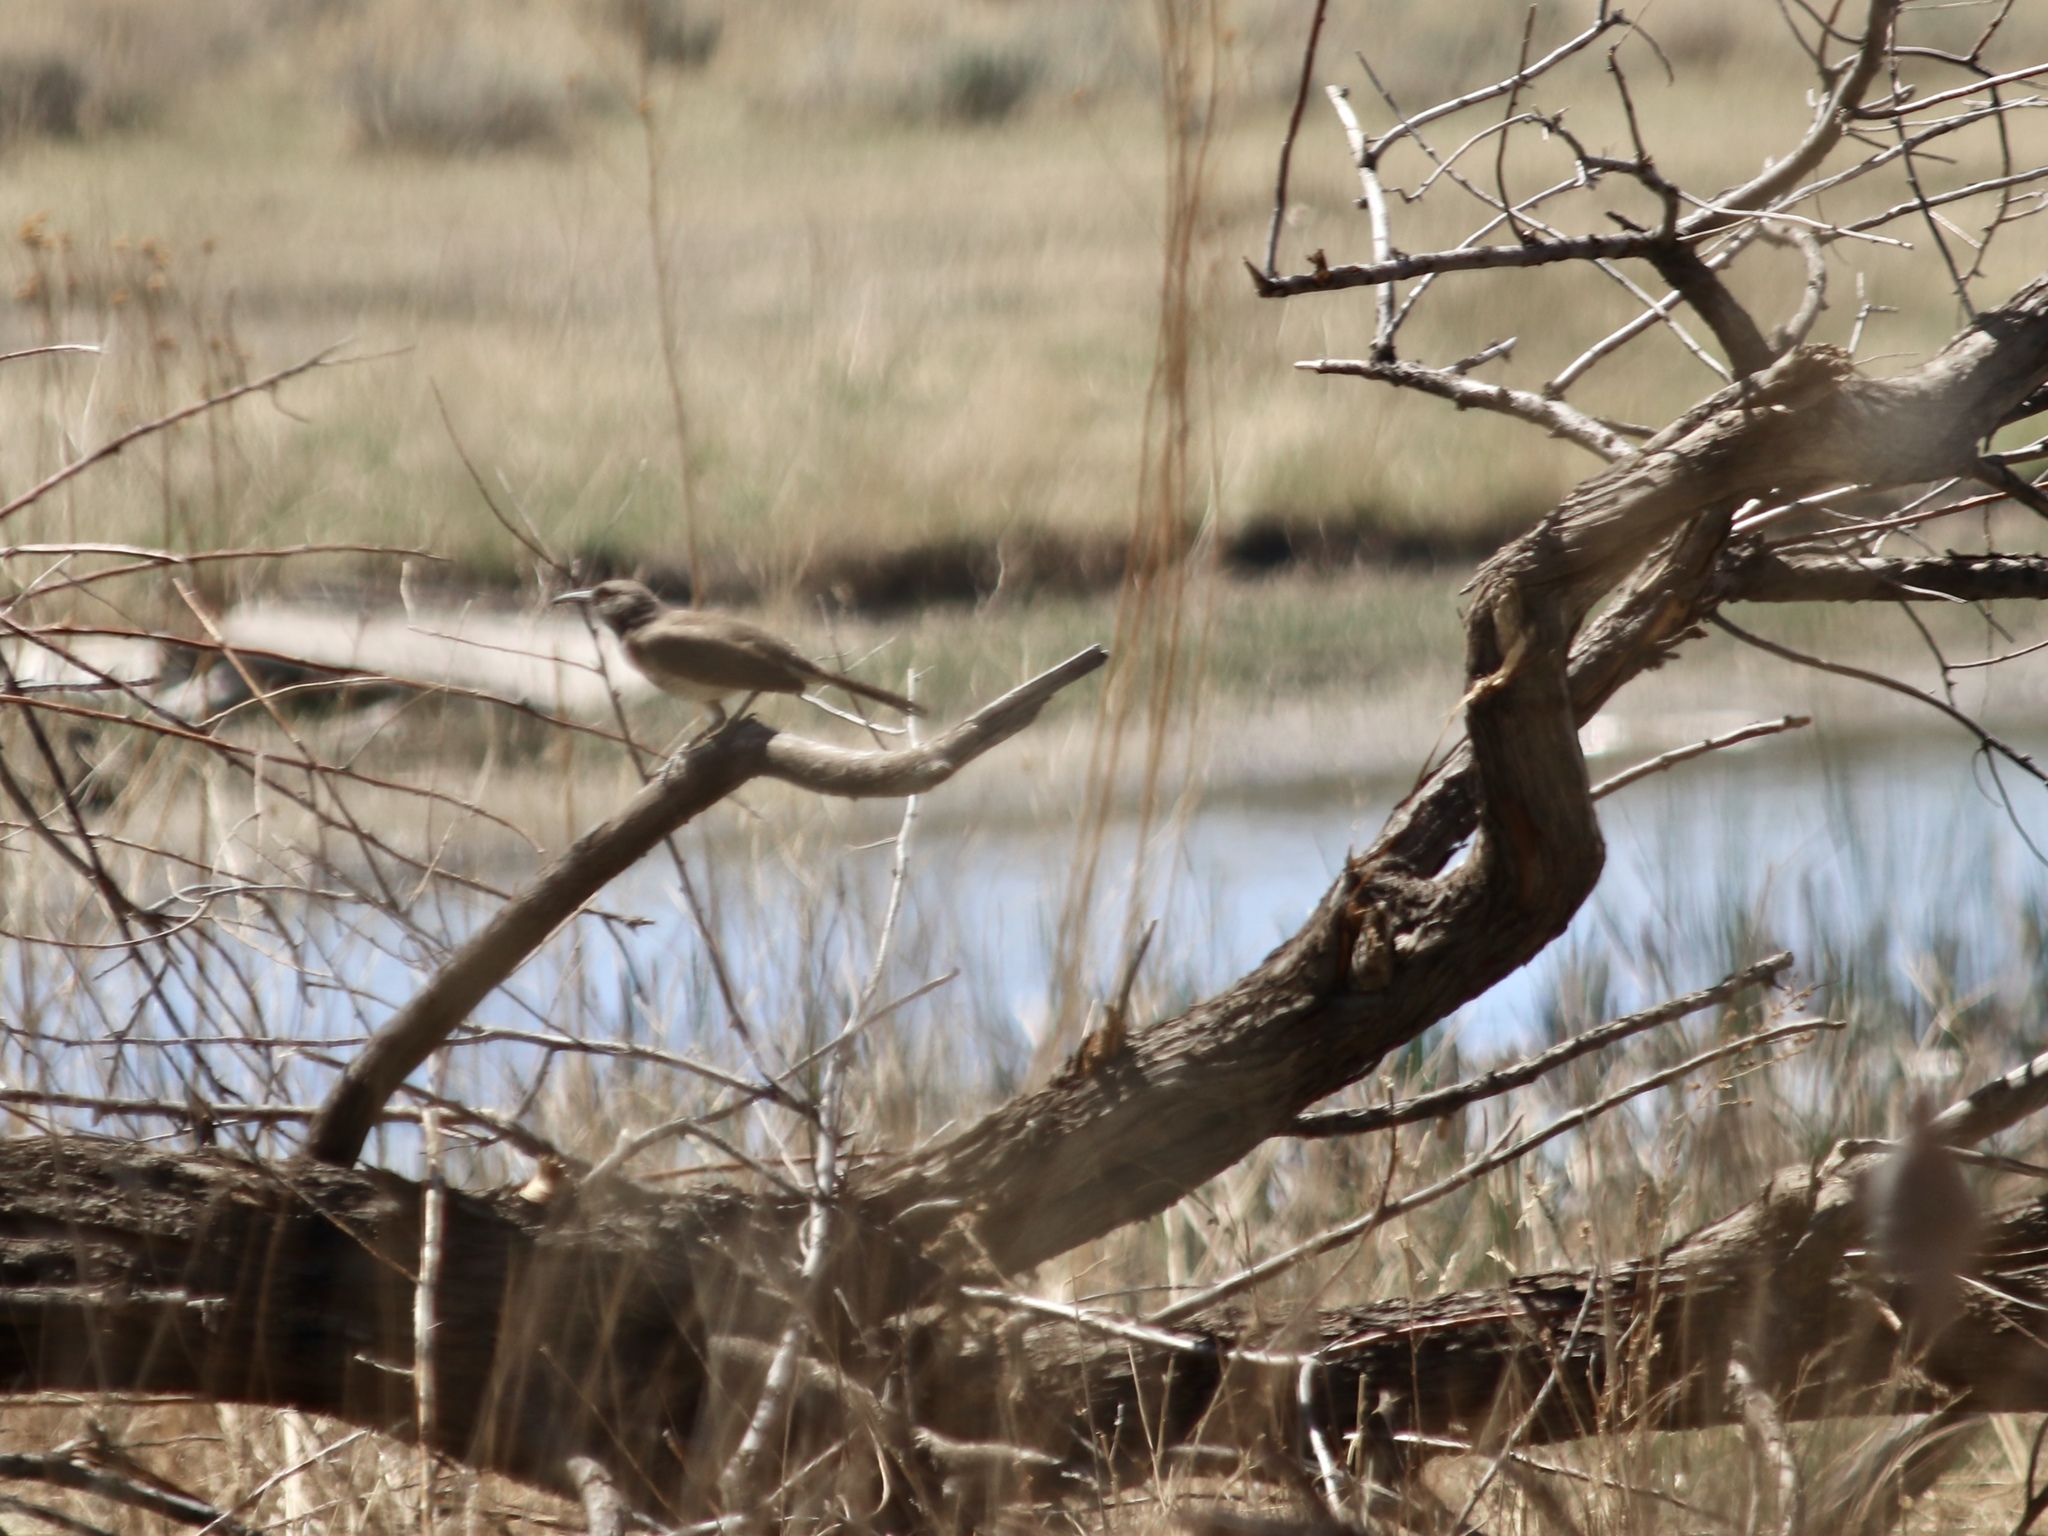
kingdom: Animalia
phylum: Chordata
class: Aves
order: Passeriformes
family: Mimidae
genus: Toxostoma
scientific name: Toxostoma curvirostre
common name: Curve-billed thrasher
